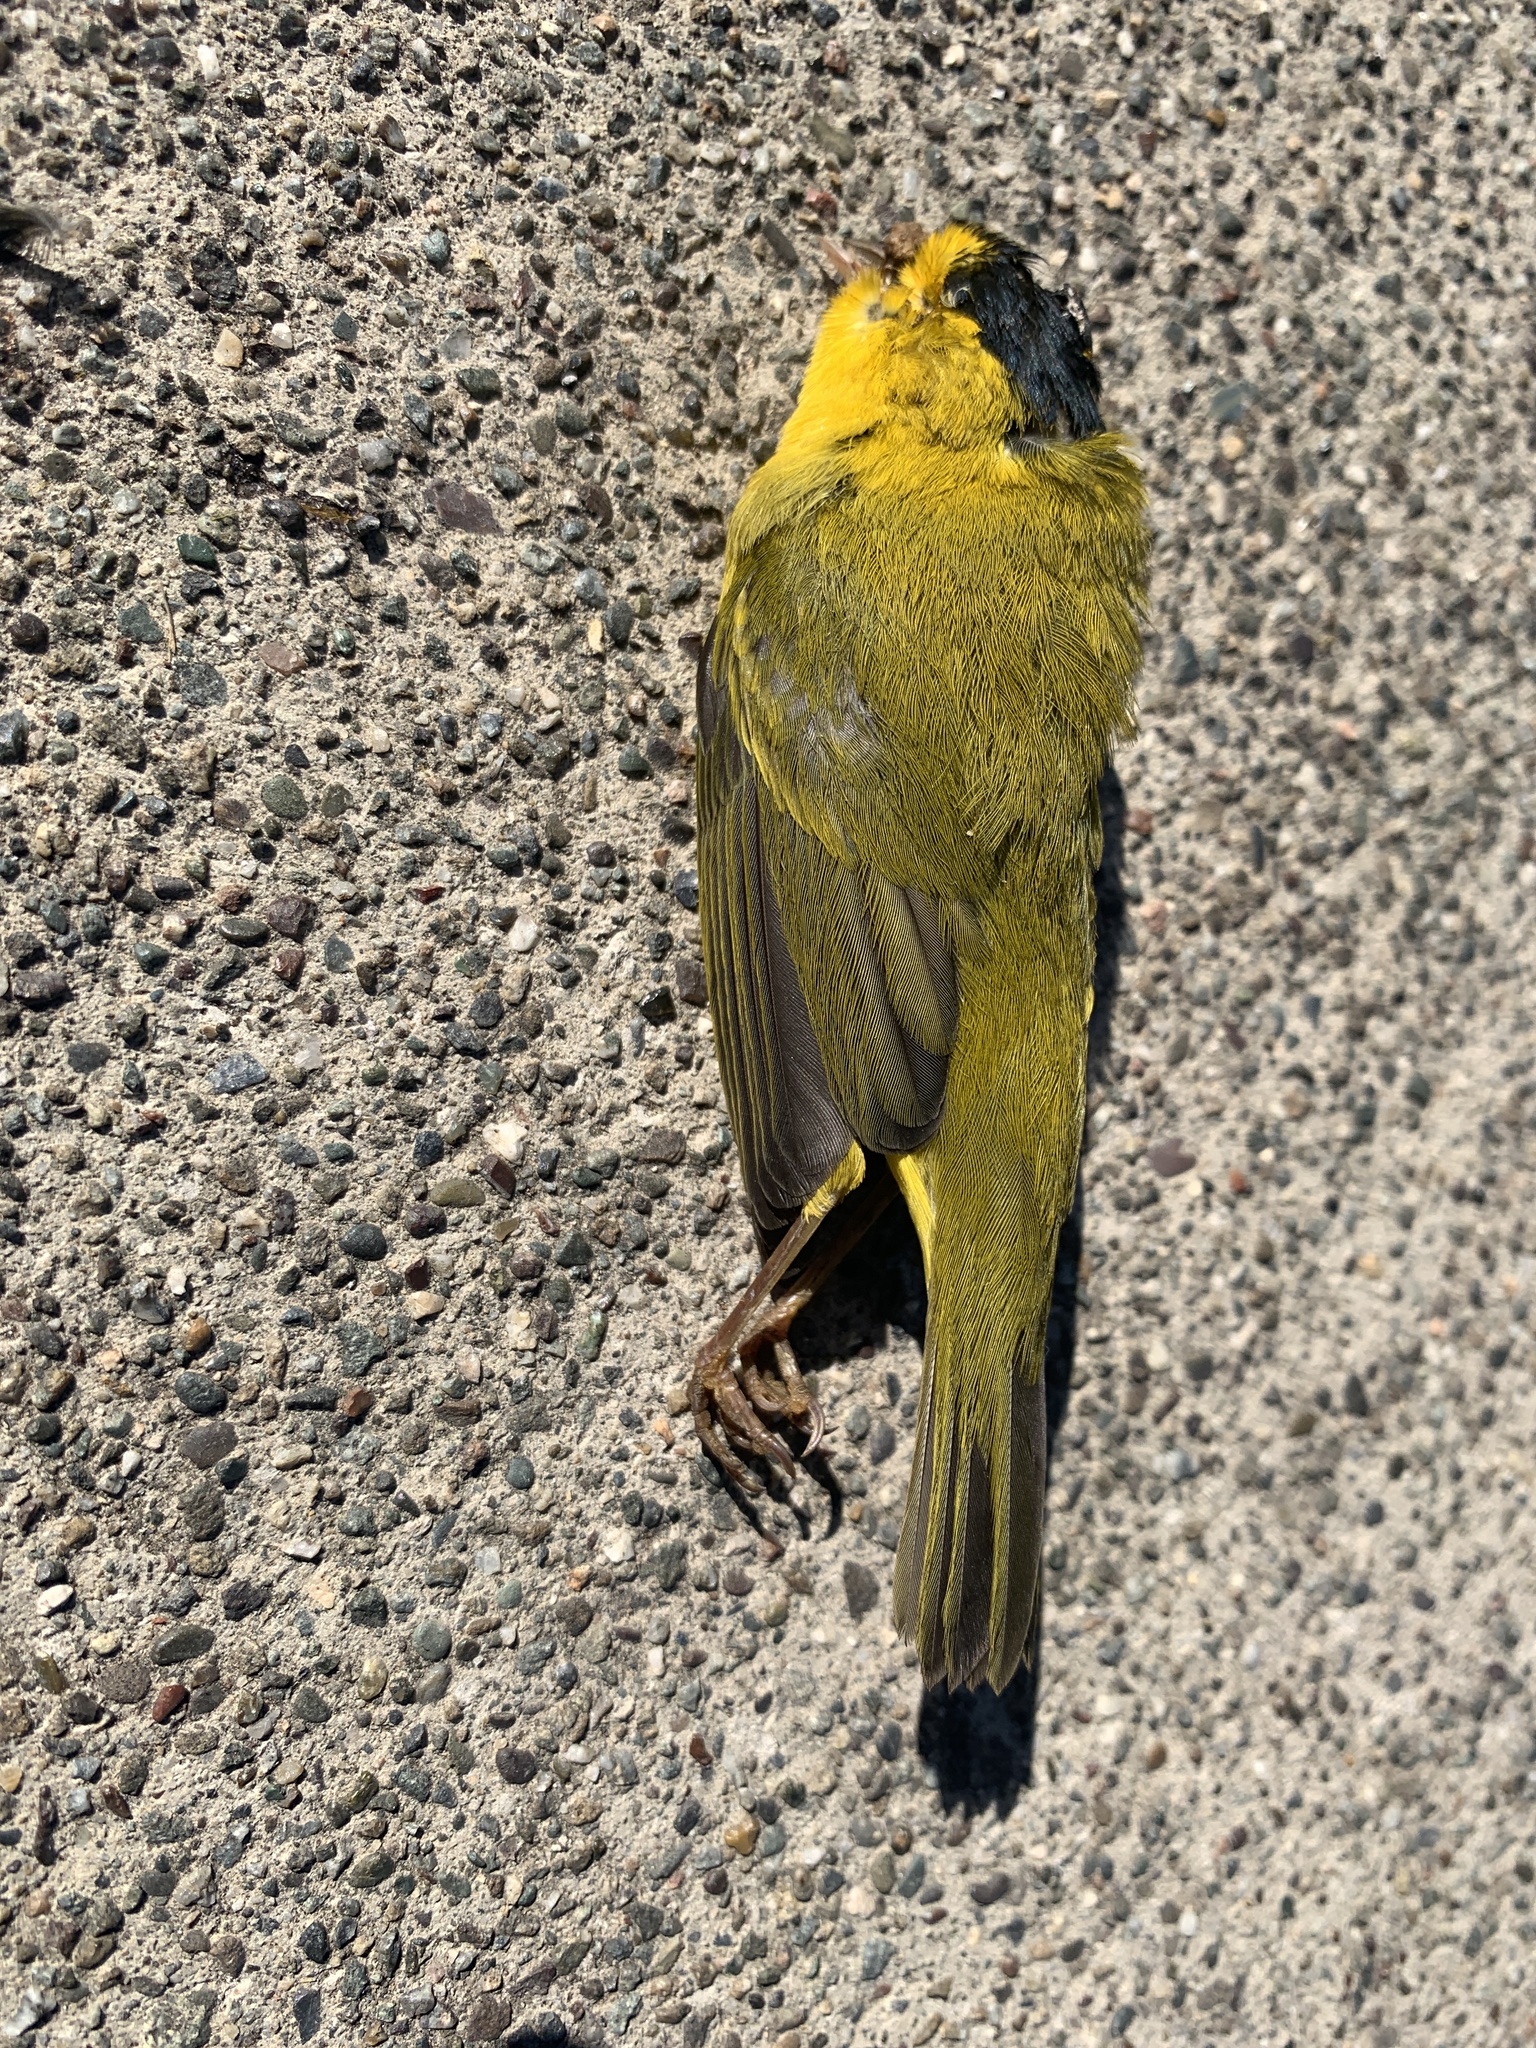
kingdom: Animalia
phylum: Chordata
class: Aves
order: Passeriformes
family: Parulidae
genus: Cardellina
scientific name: Cardellina pusilla
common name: Wilson's warbler
